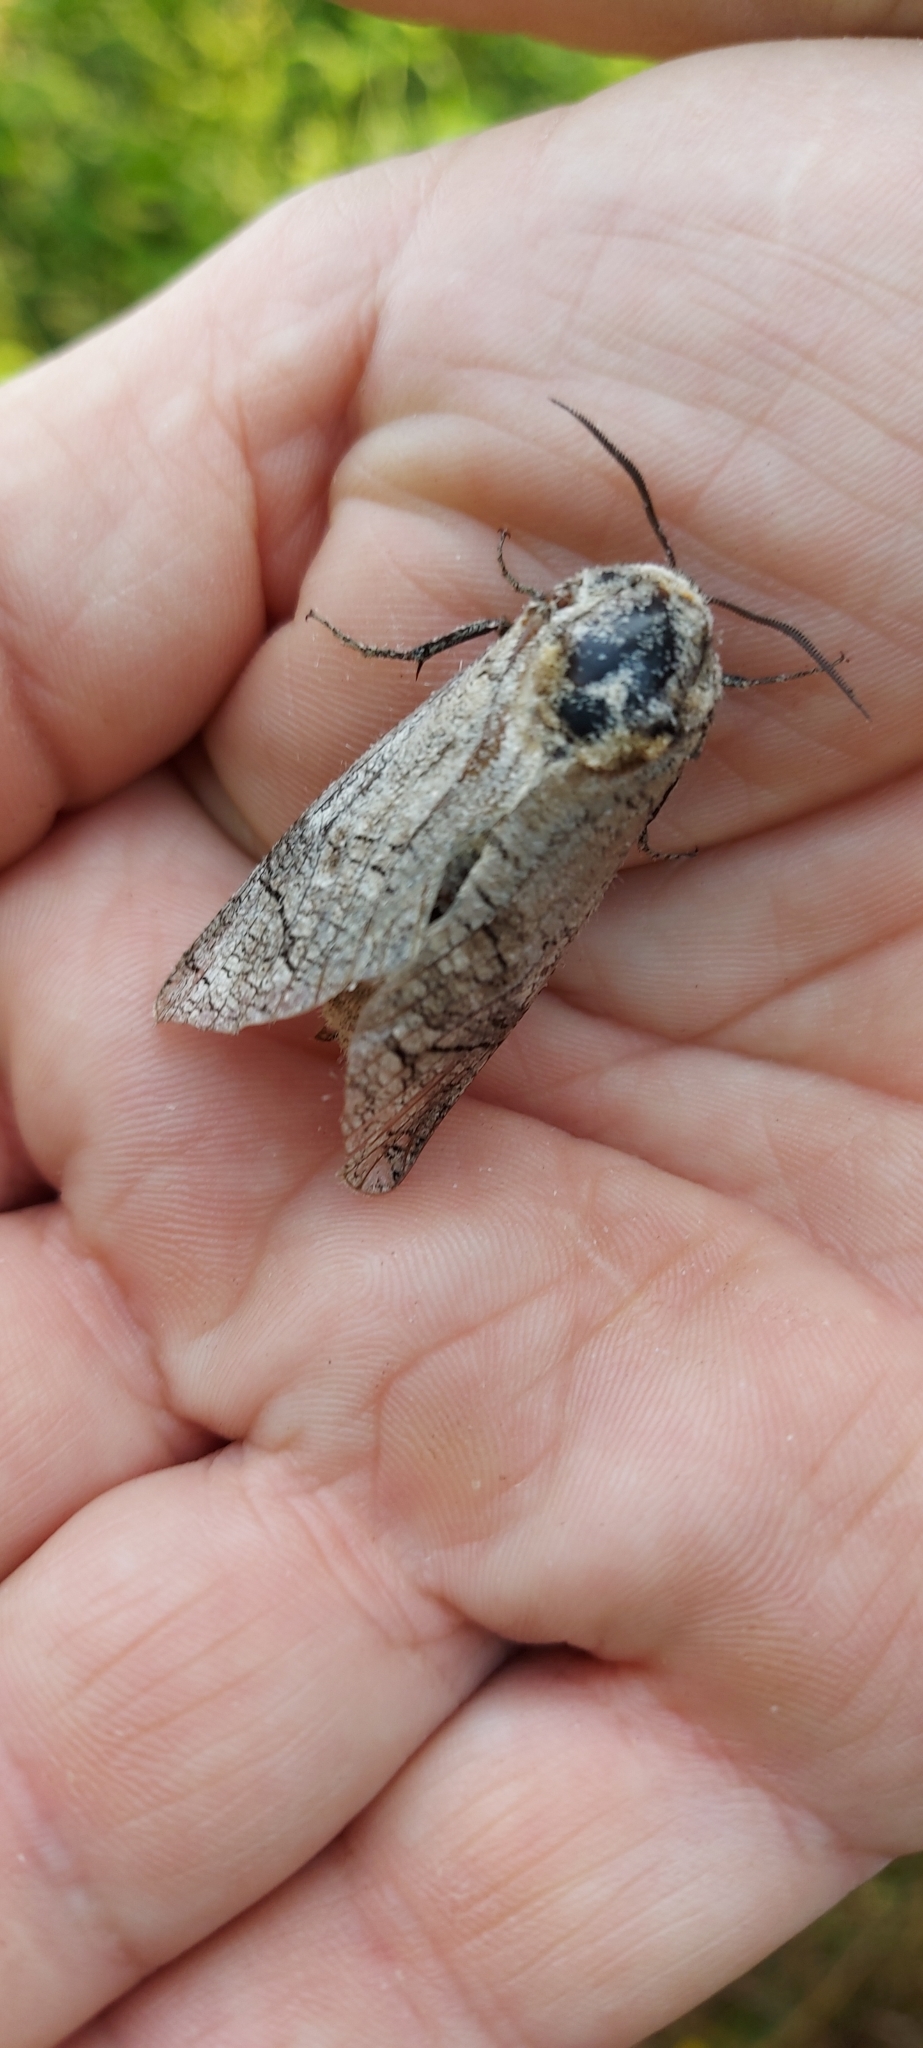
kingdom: Animalia
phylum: Arthropoda
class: Insecta
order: Lepidoptera
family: Cossidae
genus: Cossus
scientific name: Cossus cossus
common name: Goat moth
